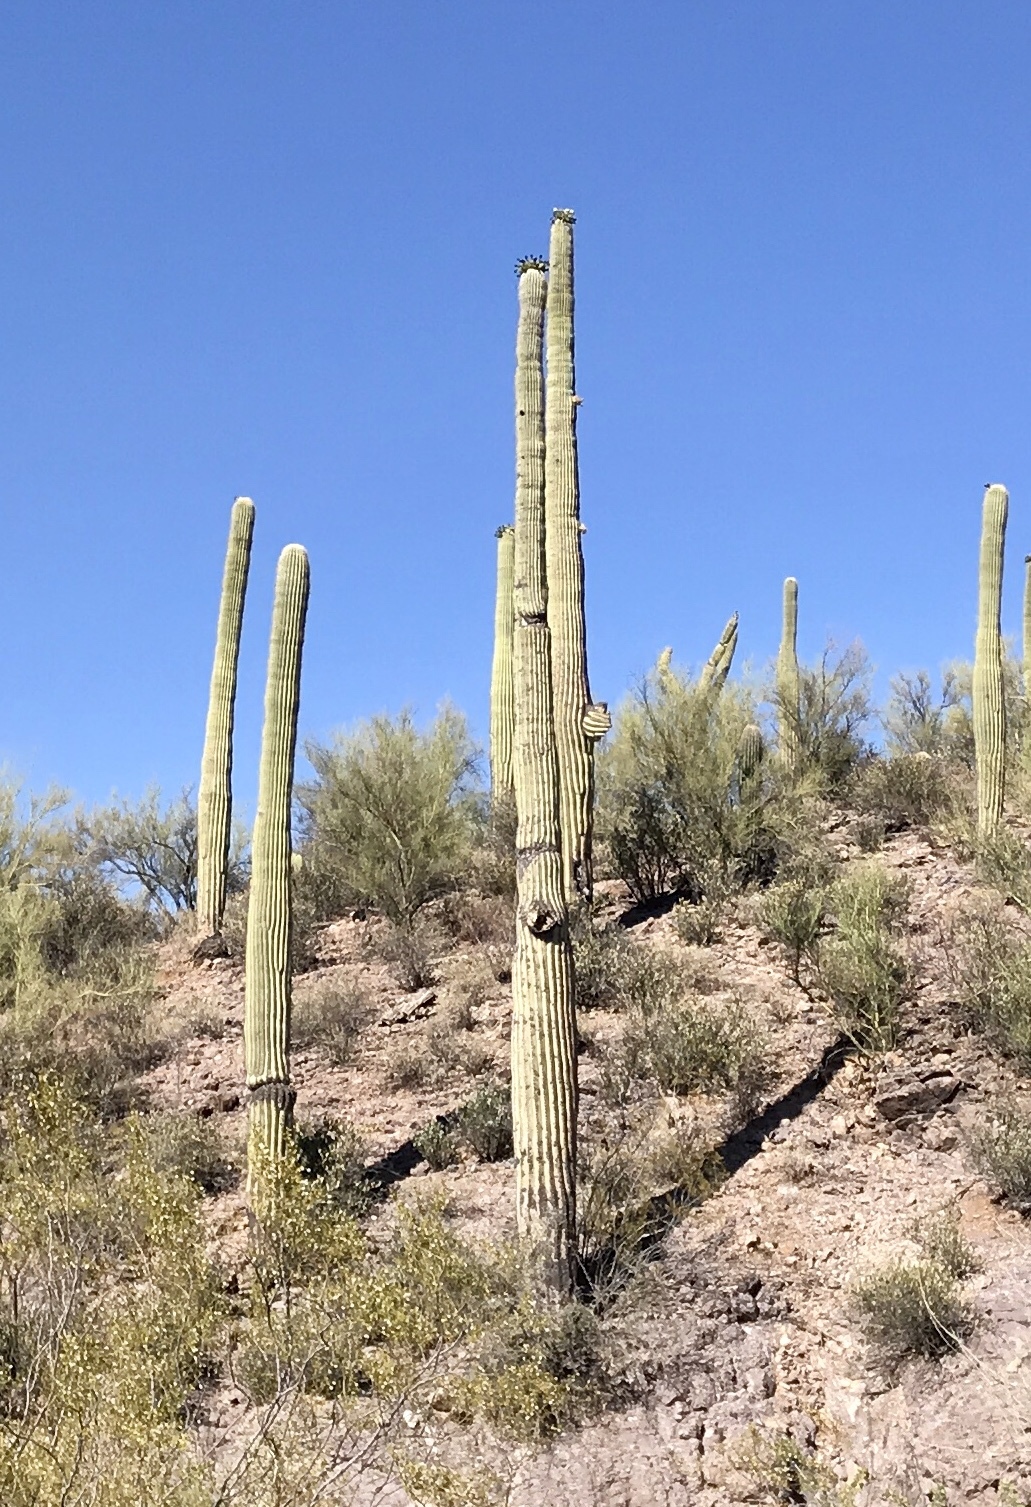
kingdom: Plantae
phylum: Tracheophyta
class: Magnoliopsida
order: Caryophyllales
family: Cactaceae
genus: Carnegiea
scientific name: Carnegiea gigantea
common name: Saguaro
